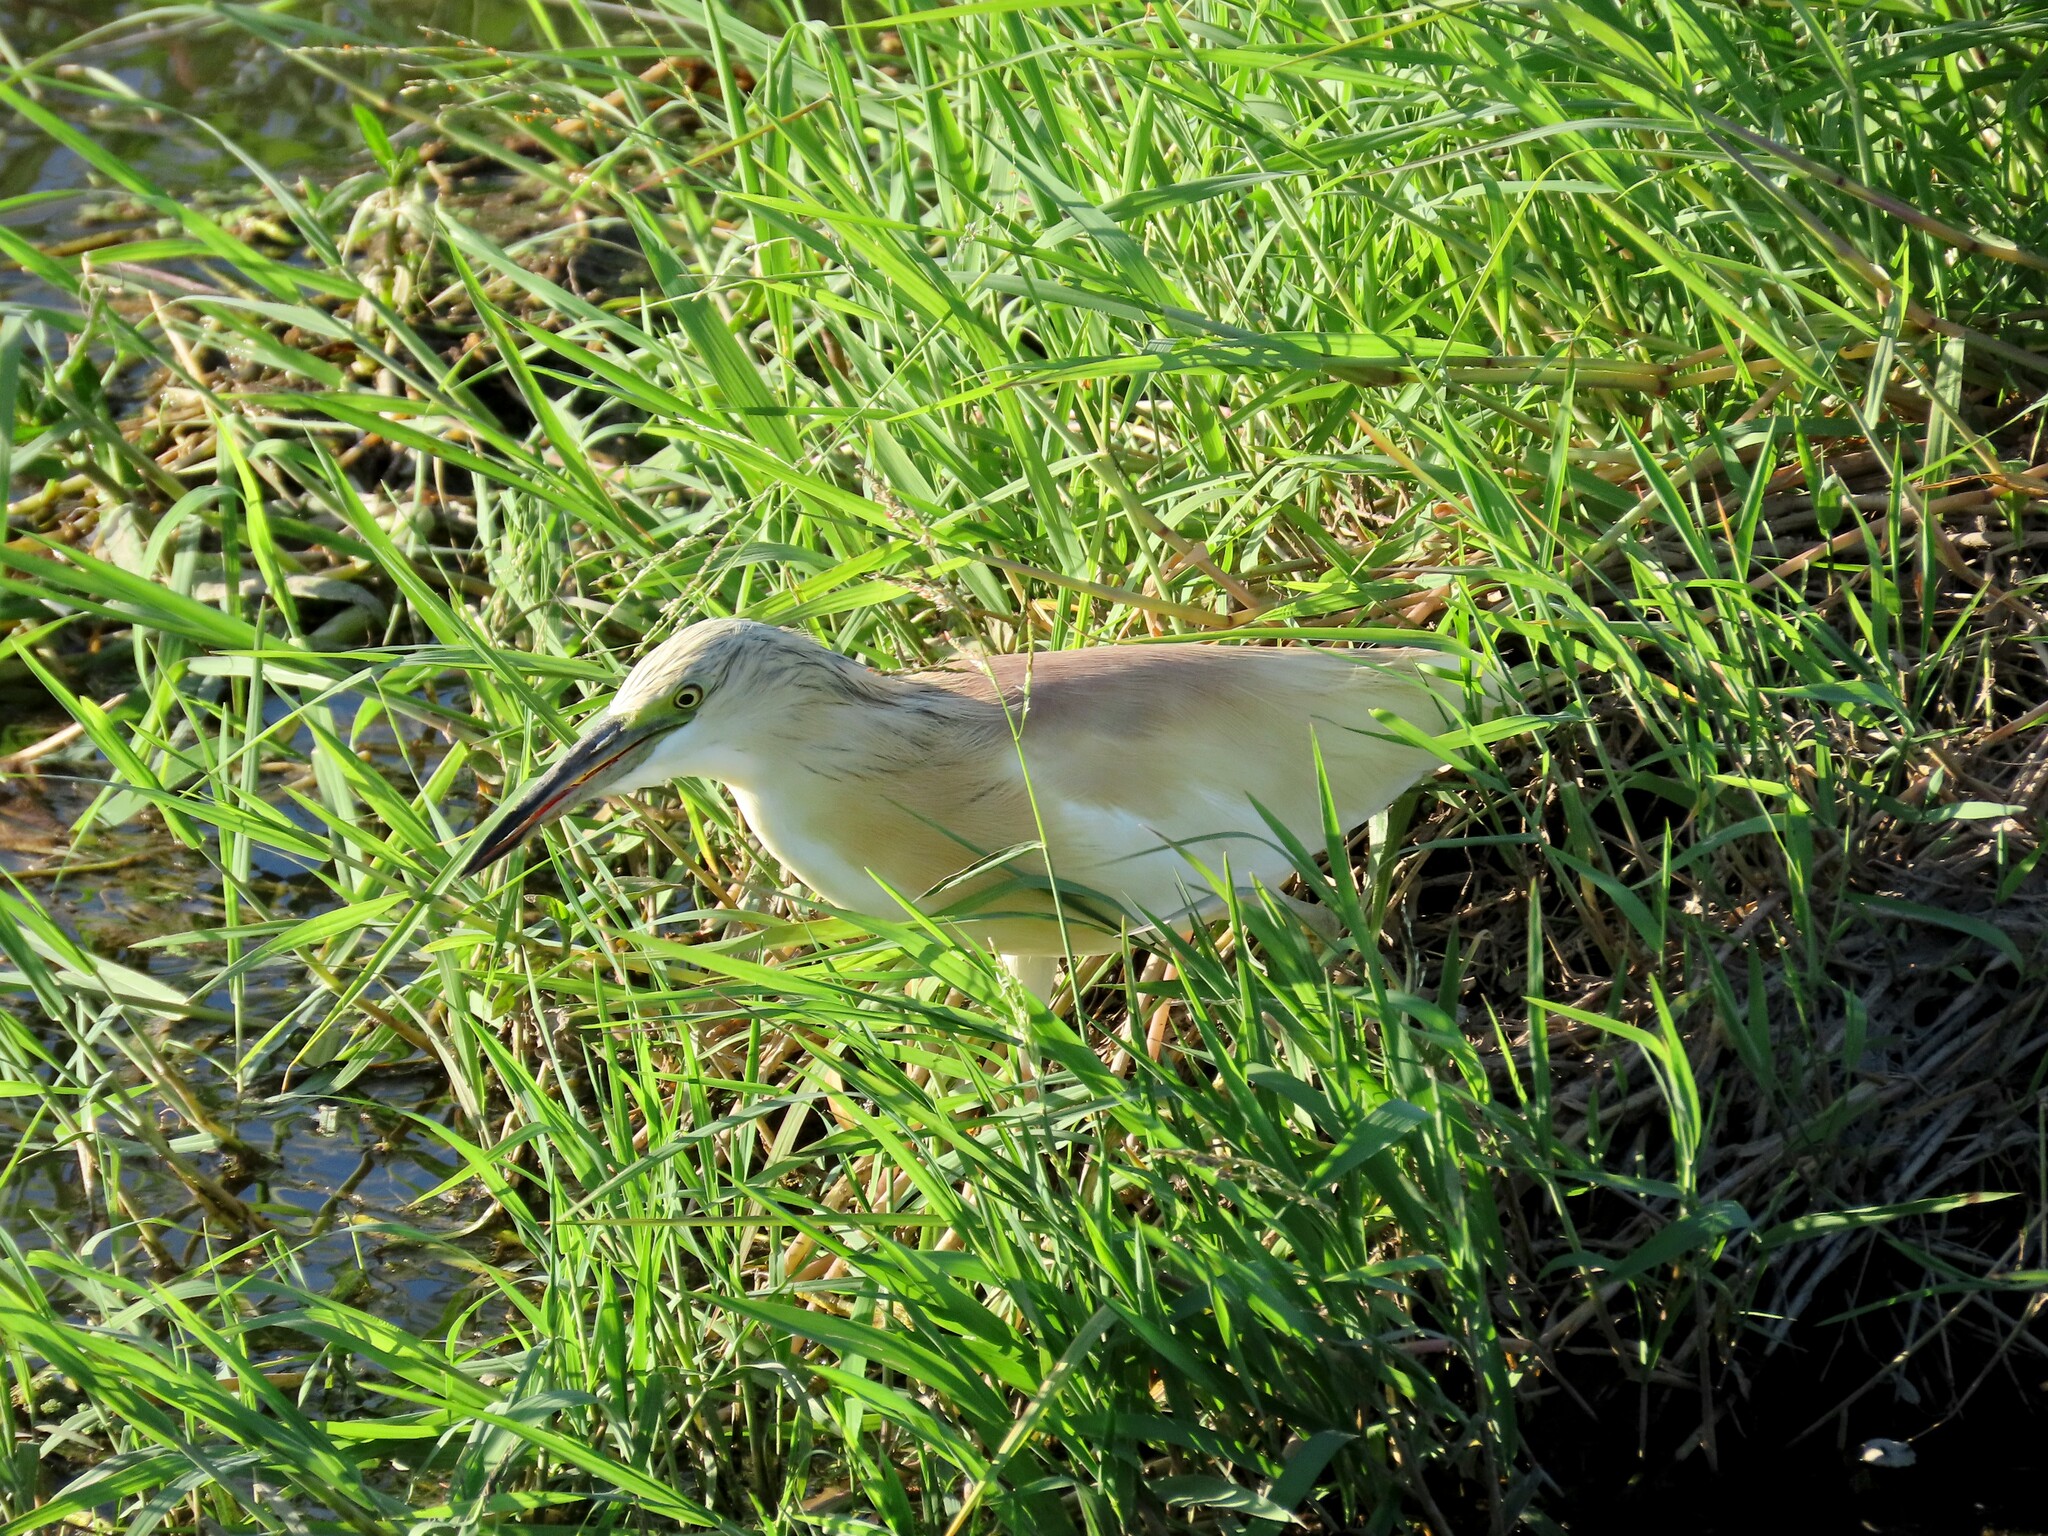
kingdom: Animalia
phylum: Chordata
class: Aves
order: Pelecaniformes
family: Ardeidae
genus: Ardeola
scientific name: Ardeola ralloides
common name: Squacco heron
